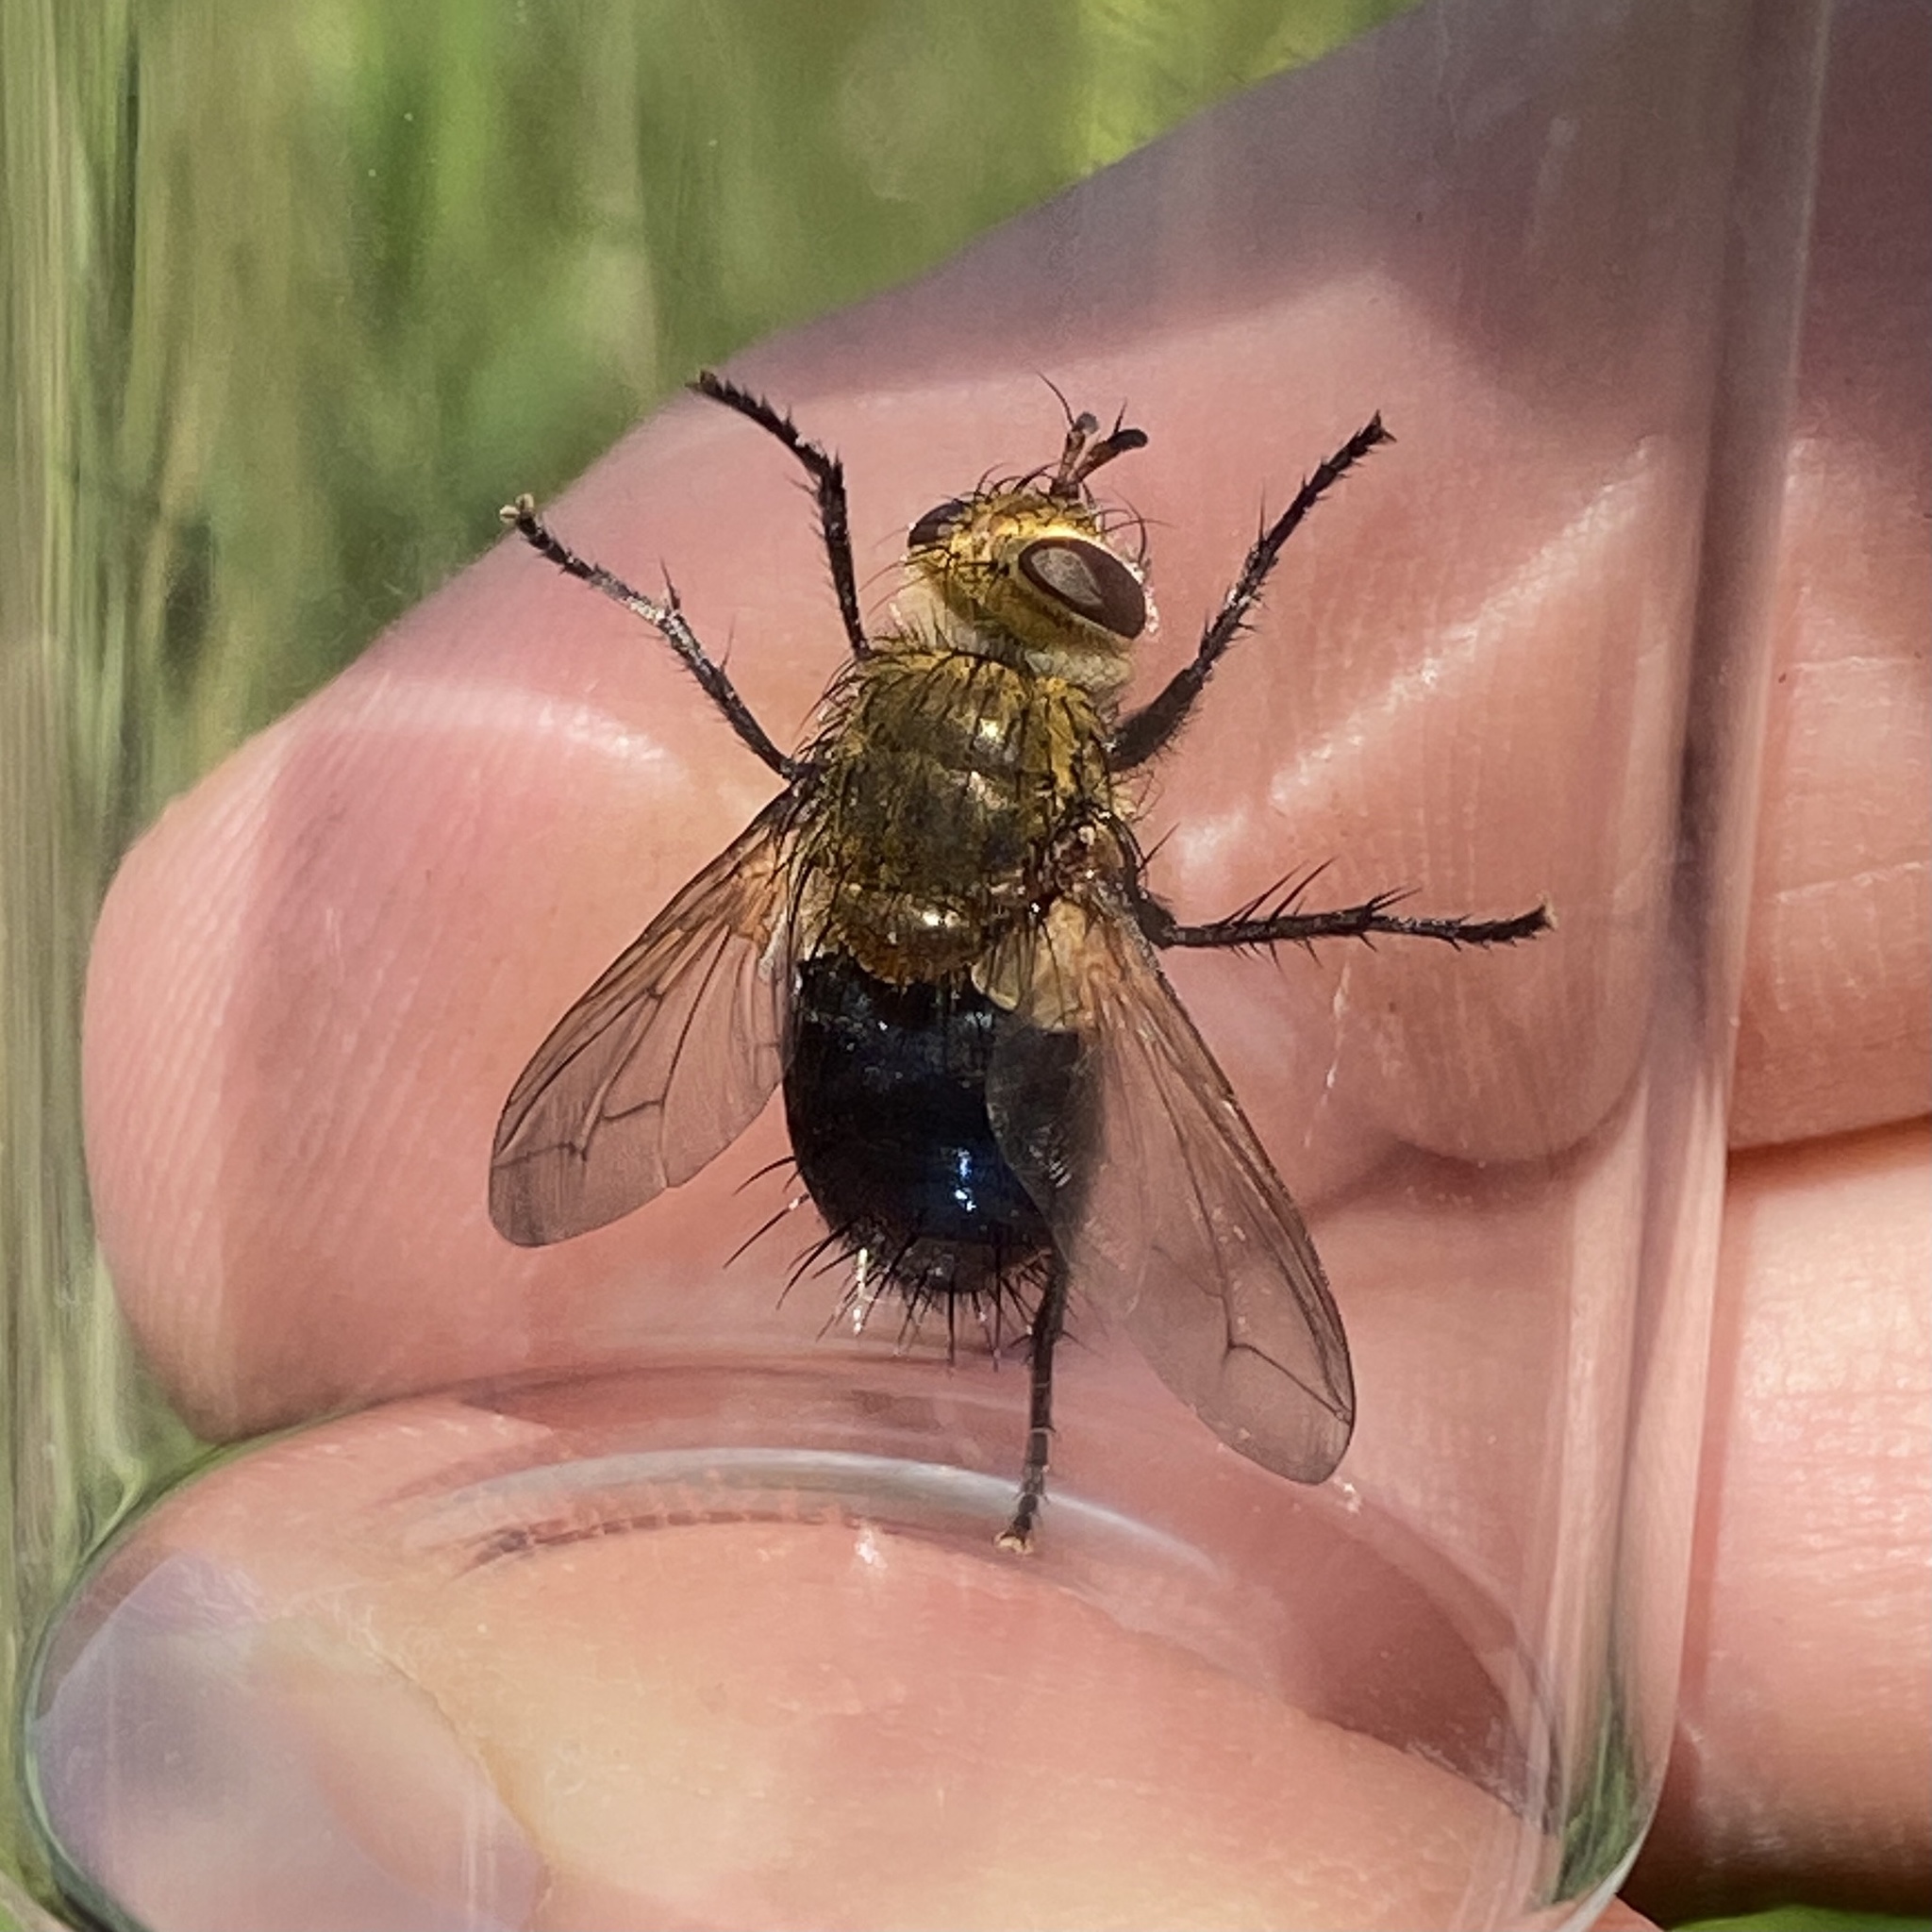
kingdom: Animalia
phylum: Arthropoda
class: Insecta
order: Diptera
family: Tachinidae
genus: Archytas
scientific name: Archytas apicifer
